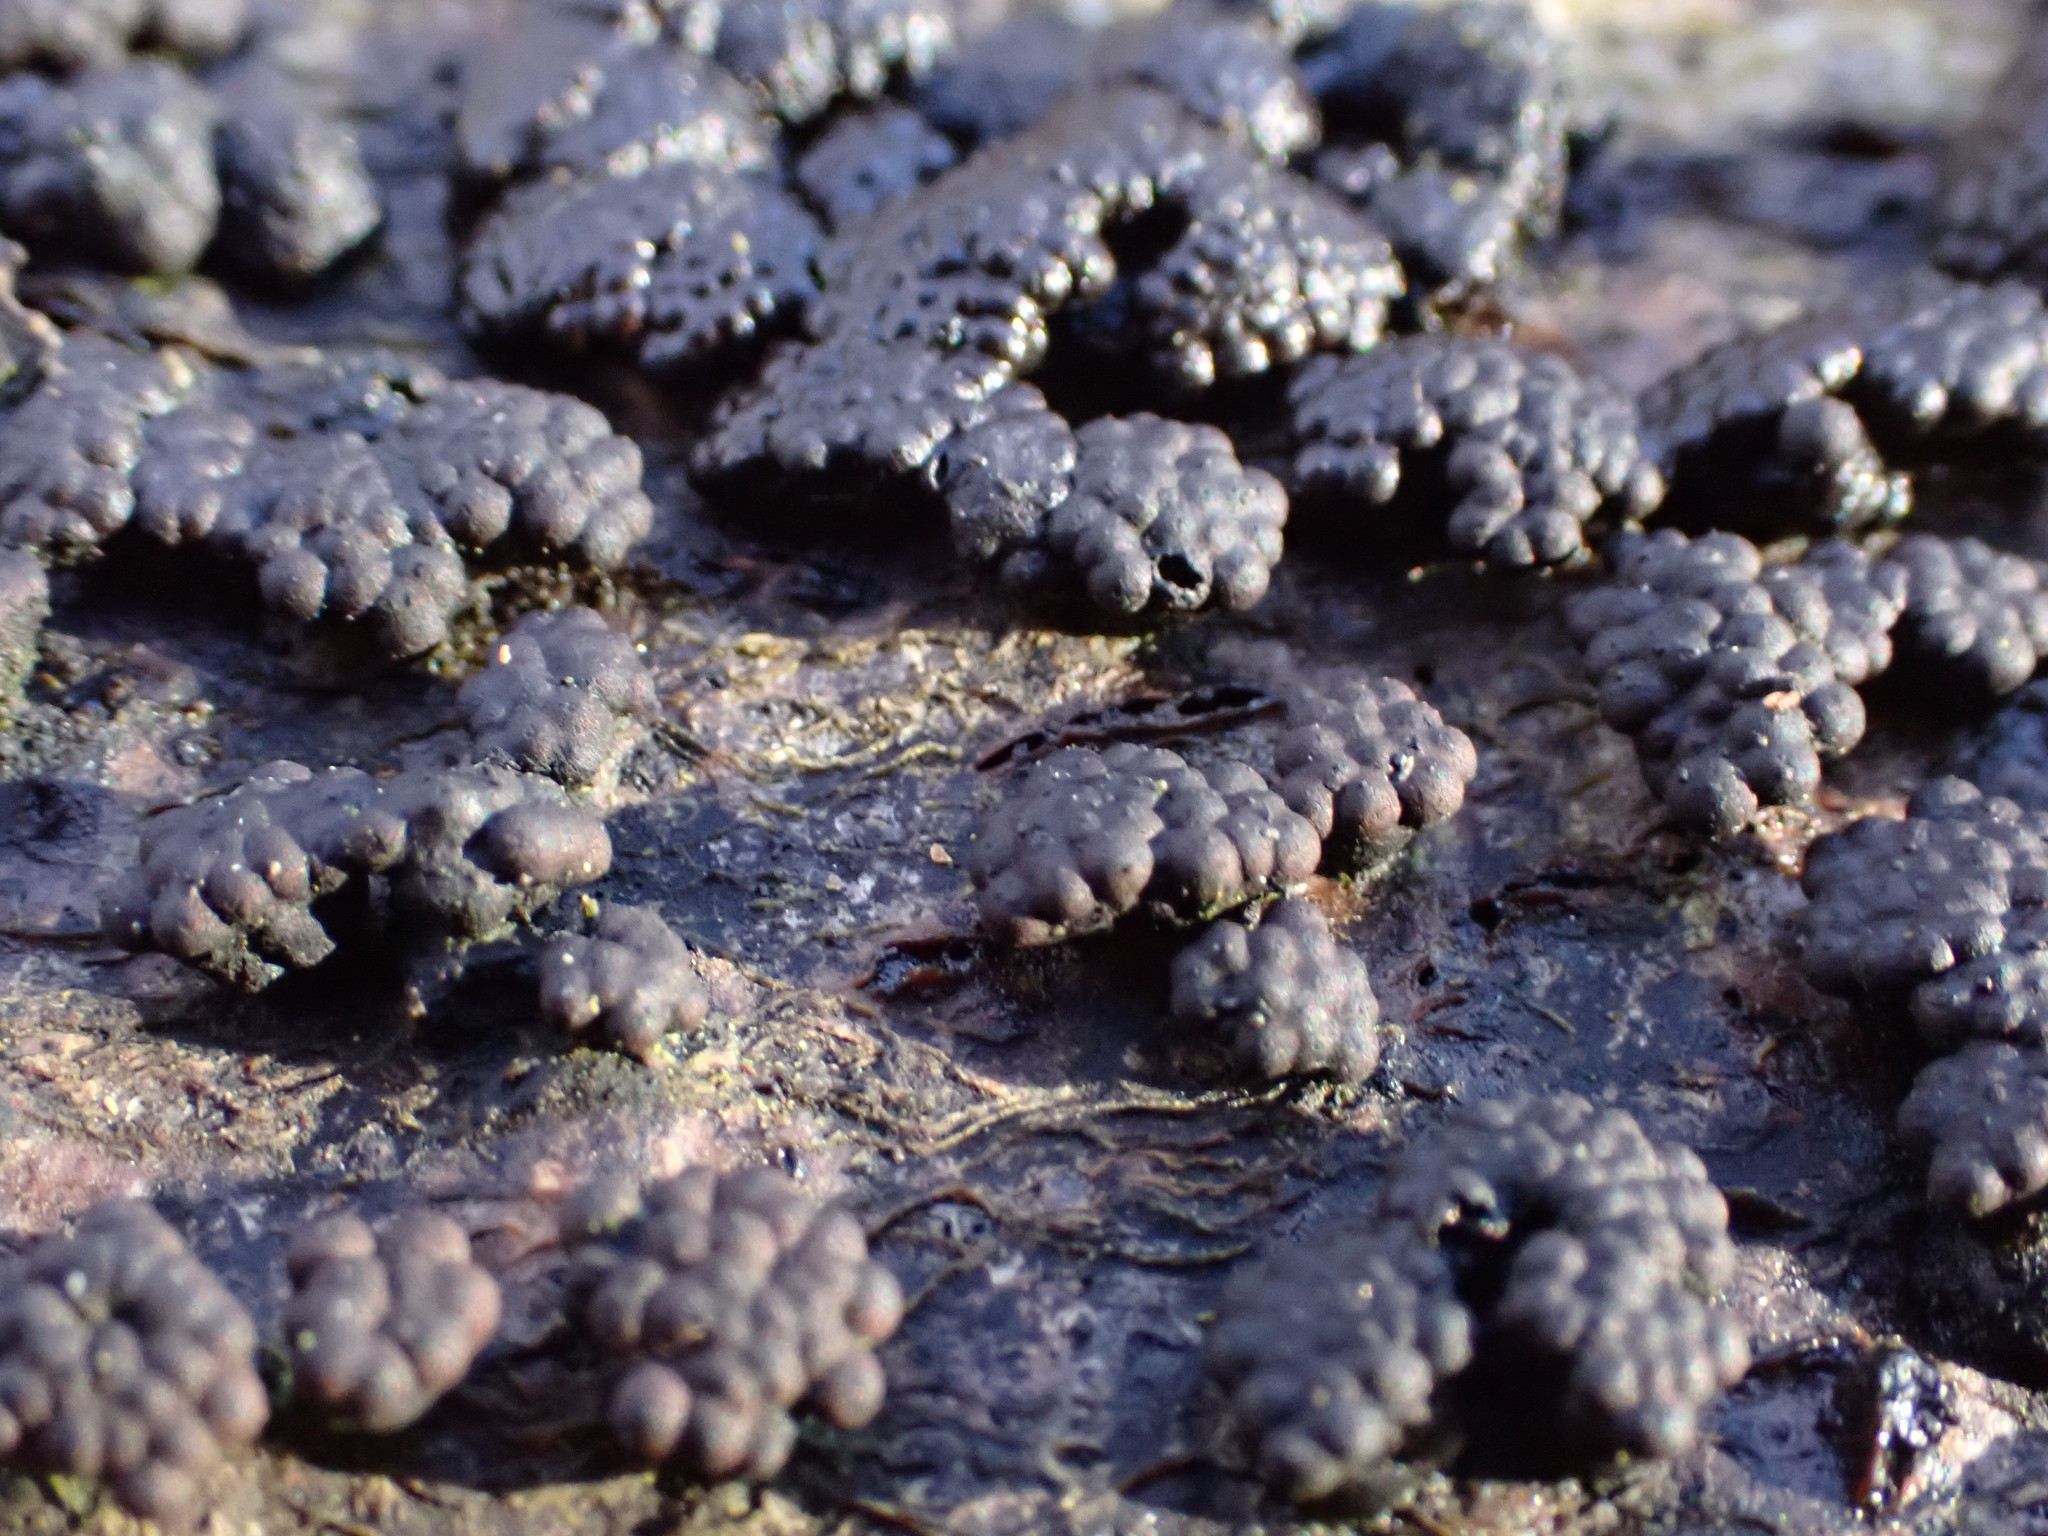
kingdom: Fungi
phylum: Ascomycota
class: Sordariomycetes
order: Xylariales
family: Hypoxylaceae
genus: Jackrogersella
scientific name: Jackrogersella multiformis
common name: Birch woodwart
